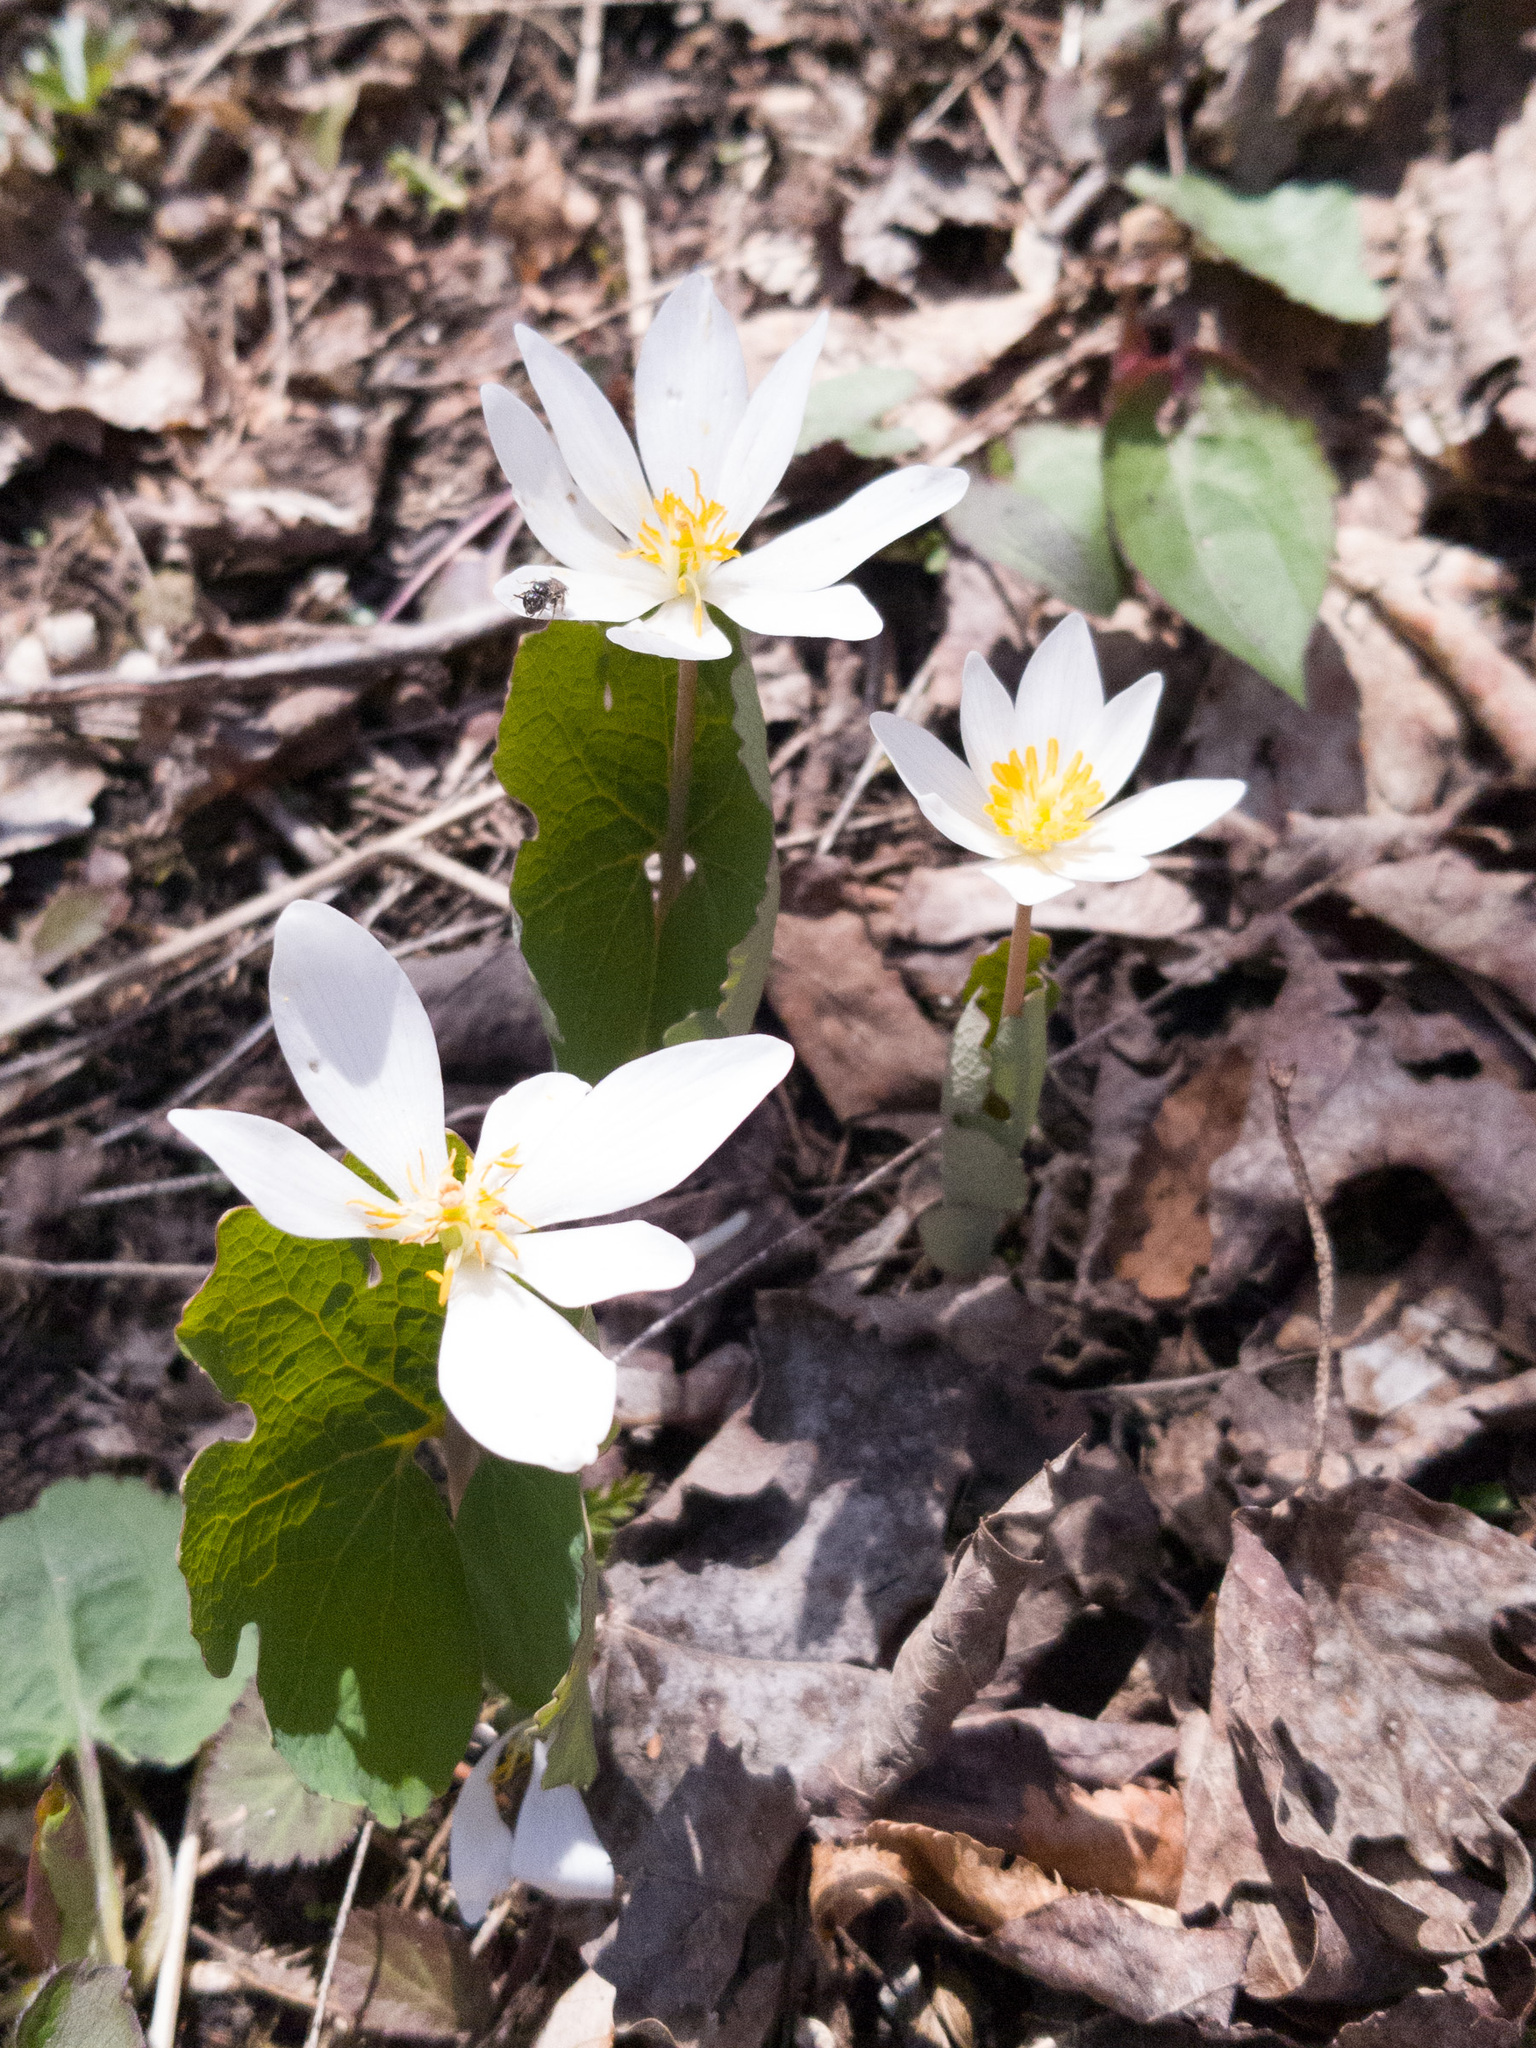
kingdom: Plantae
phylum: Tracheophyta
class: Magnoliopsida
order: Ranunculales
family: Papaveraceae
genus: Sanguinaria
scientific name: Sanguinaria canadensis
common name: Bloodroot
